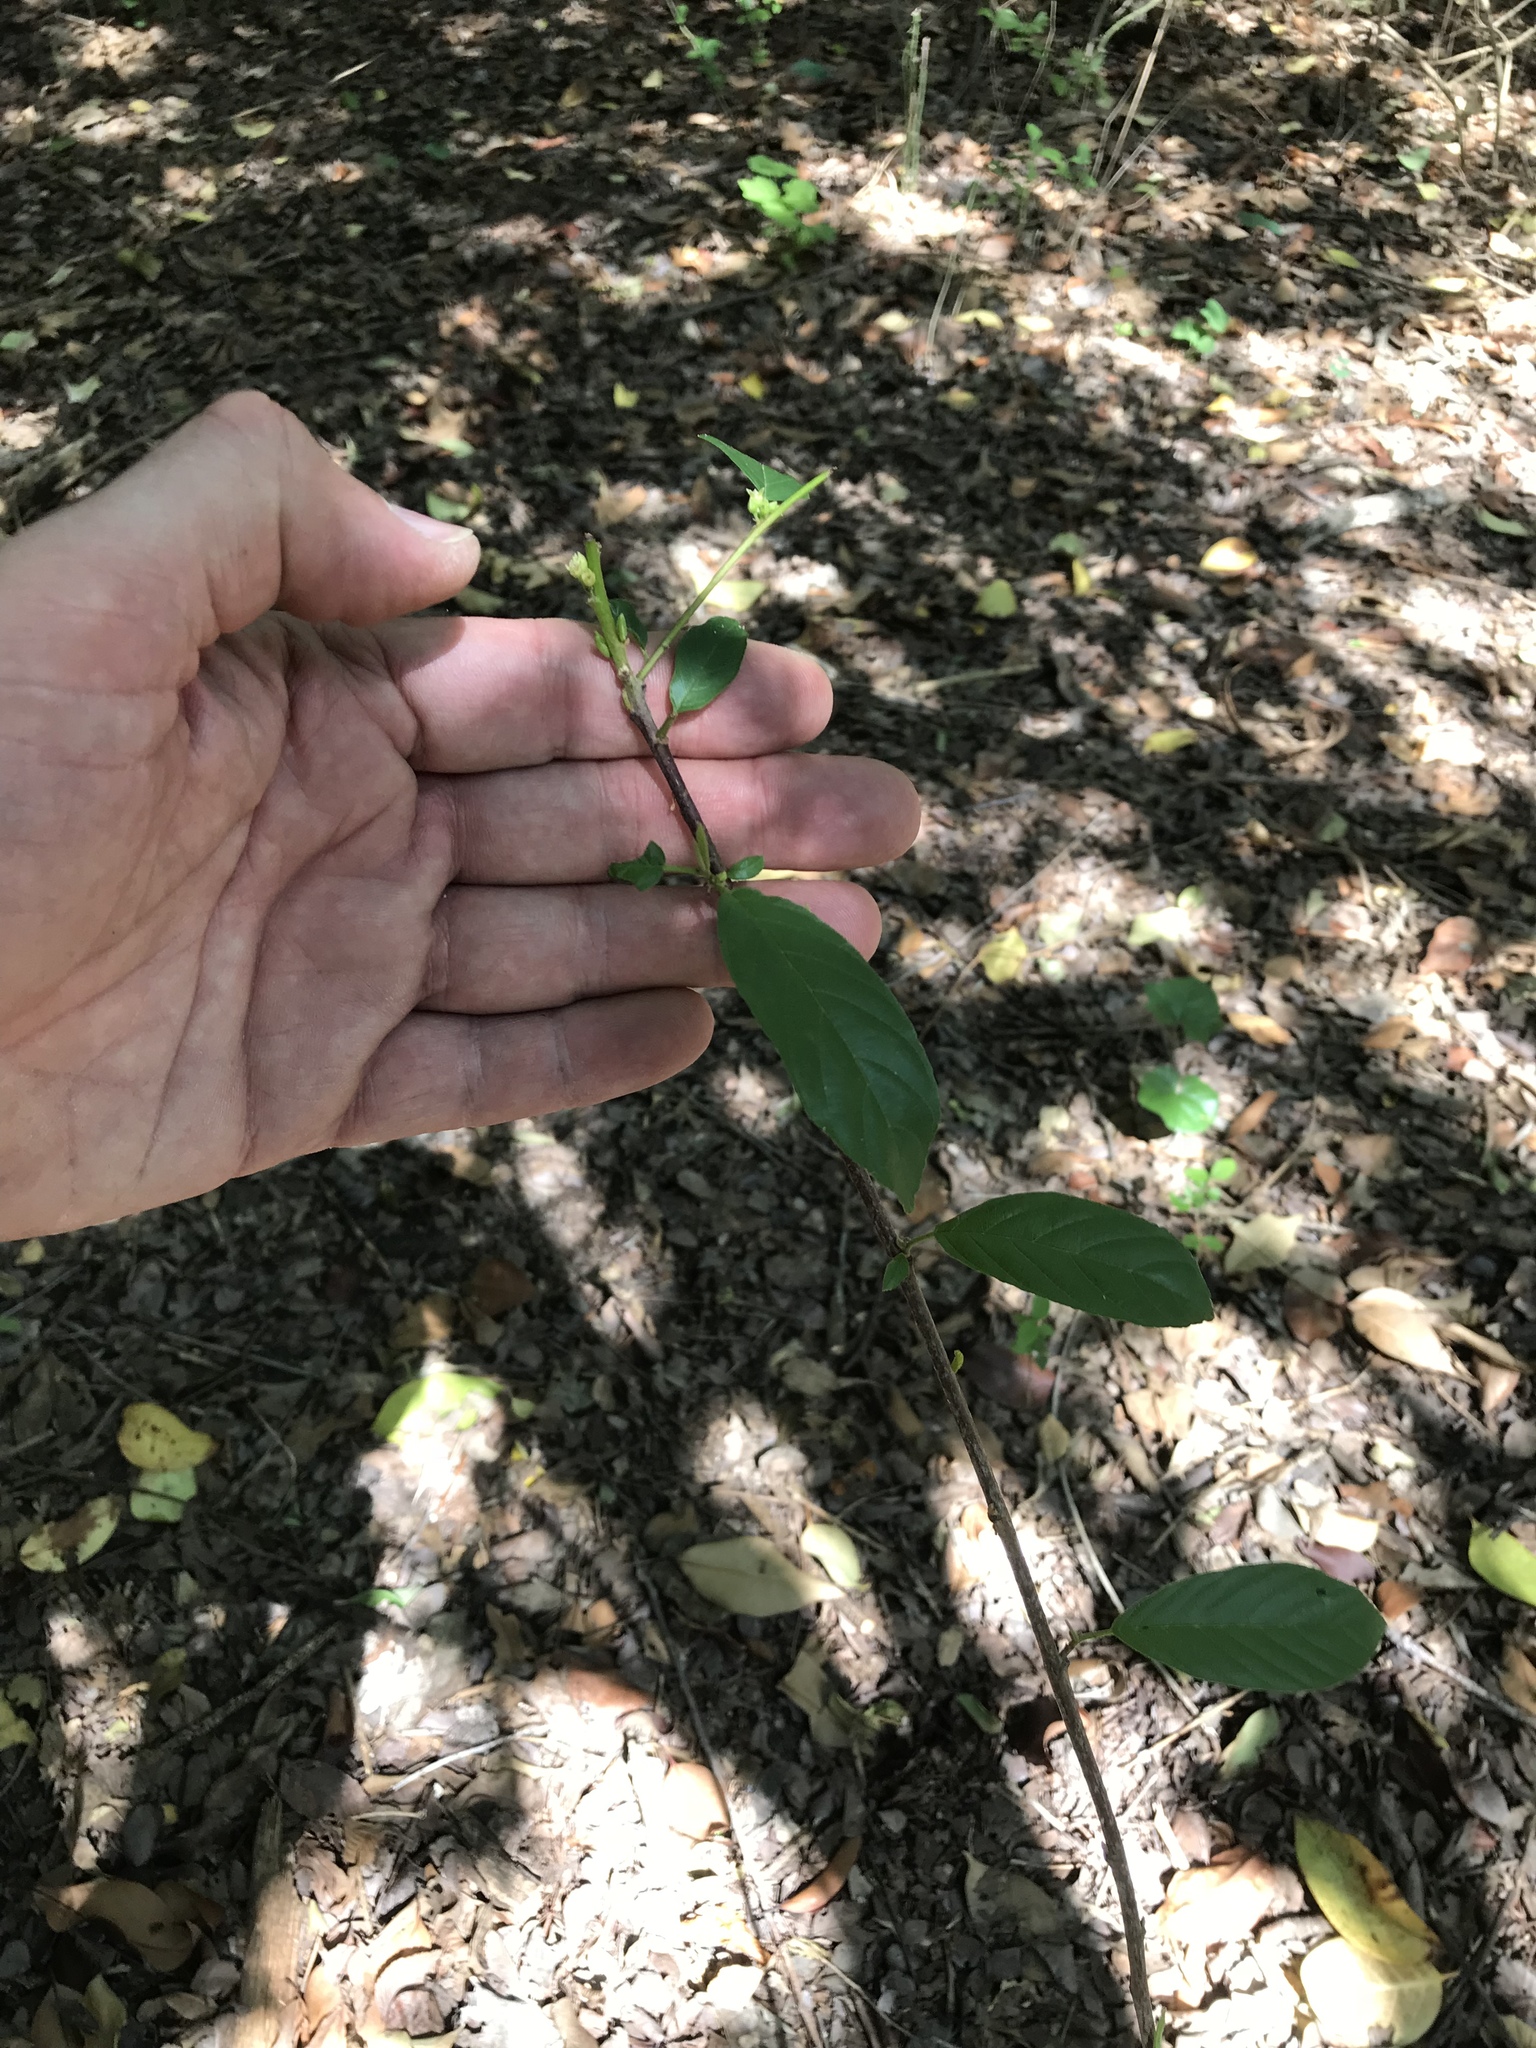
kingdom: Plantae
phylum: Tracheophyta
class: Magnoliopsida
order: Rosales
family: Rhamnaceae
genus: Frangula
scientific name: Frangula caroliniana
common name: Carolina buckthorn
